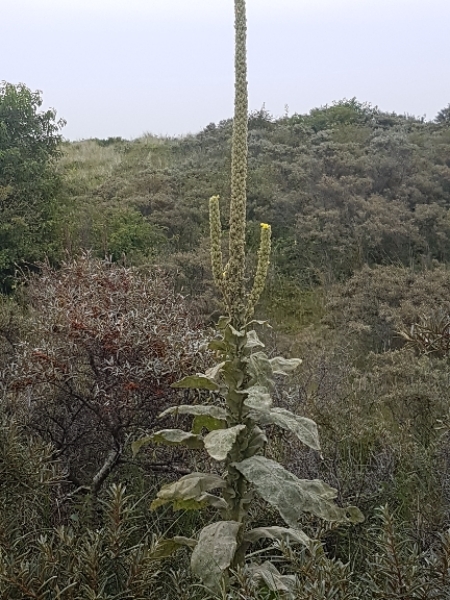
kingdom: Plantae
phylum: Tracheophyta
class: Magnoliopsida
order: Lamiales
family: Scrophulariaceae
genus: Verbascum
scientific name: Verbascum thapsus
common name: Common mullein
